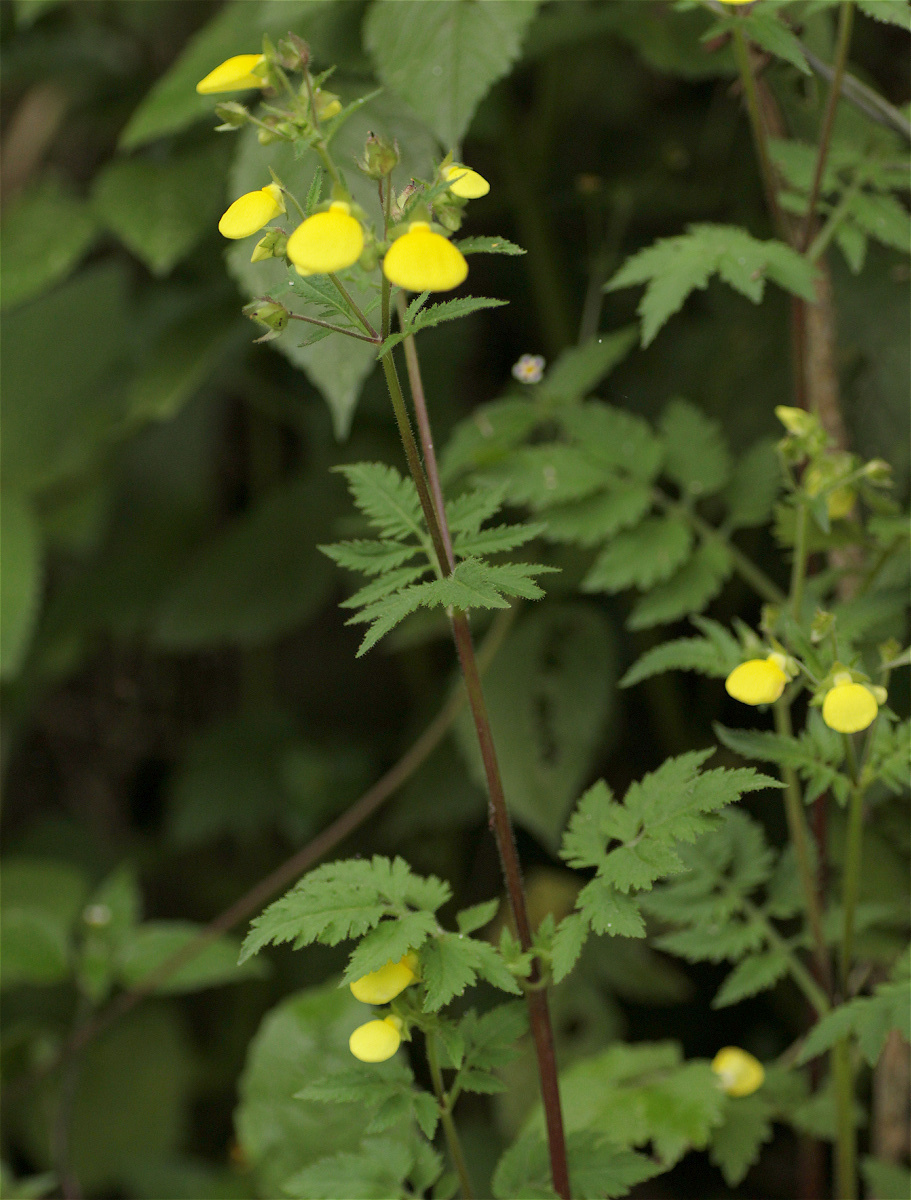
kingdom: Plantae
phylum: Tracheophyta
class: Magnoliopsida
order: Lamiales
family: Calceolariaceae
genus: Calceolaria
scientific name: Calceolaria tripartita
